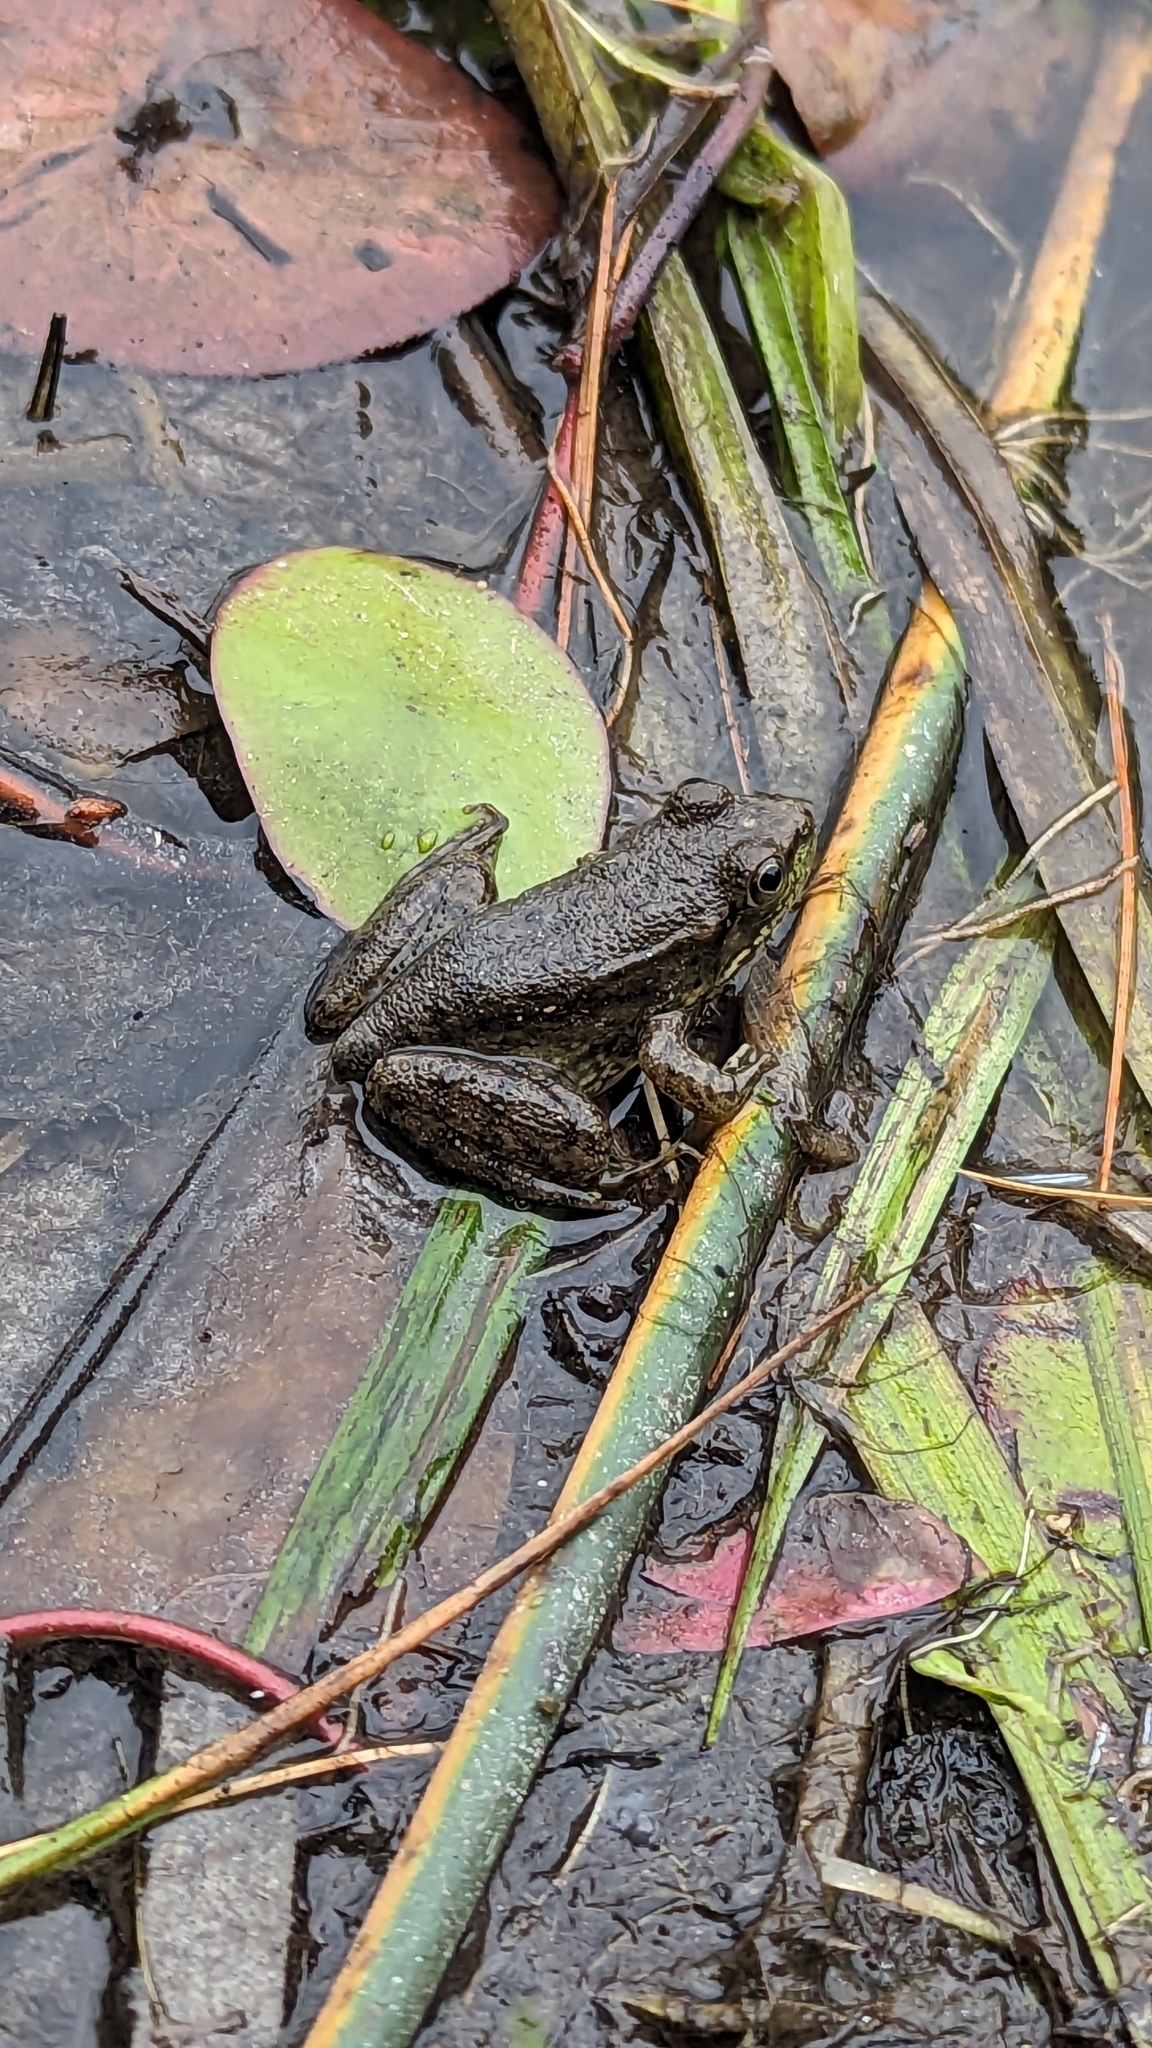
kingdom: Animalia
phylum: Chordata
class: Amphibia
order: Anura
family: Ranidae
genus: Lithobates
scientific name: Lithobates clamitans
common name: Green frog
